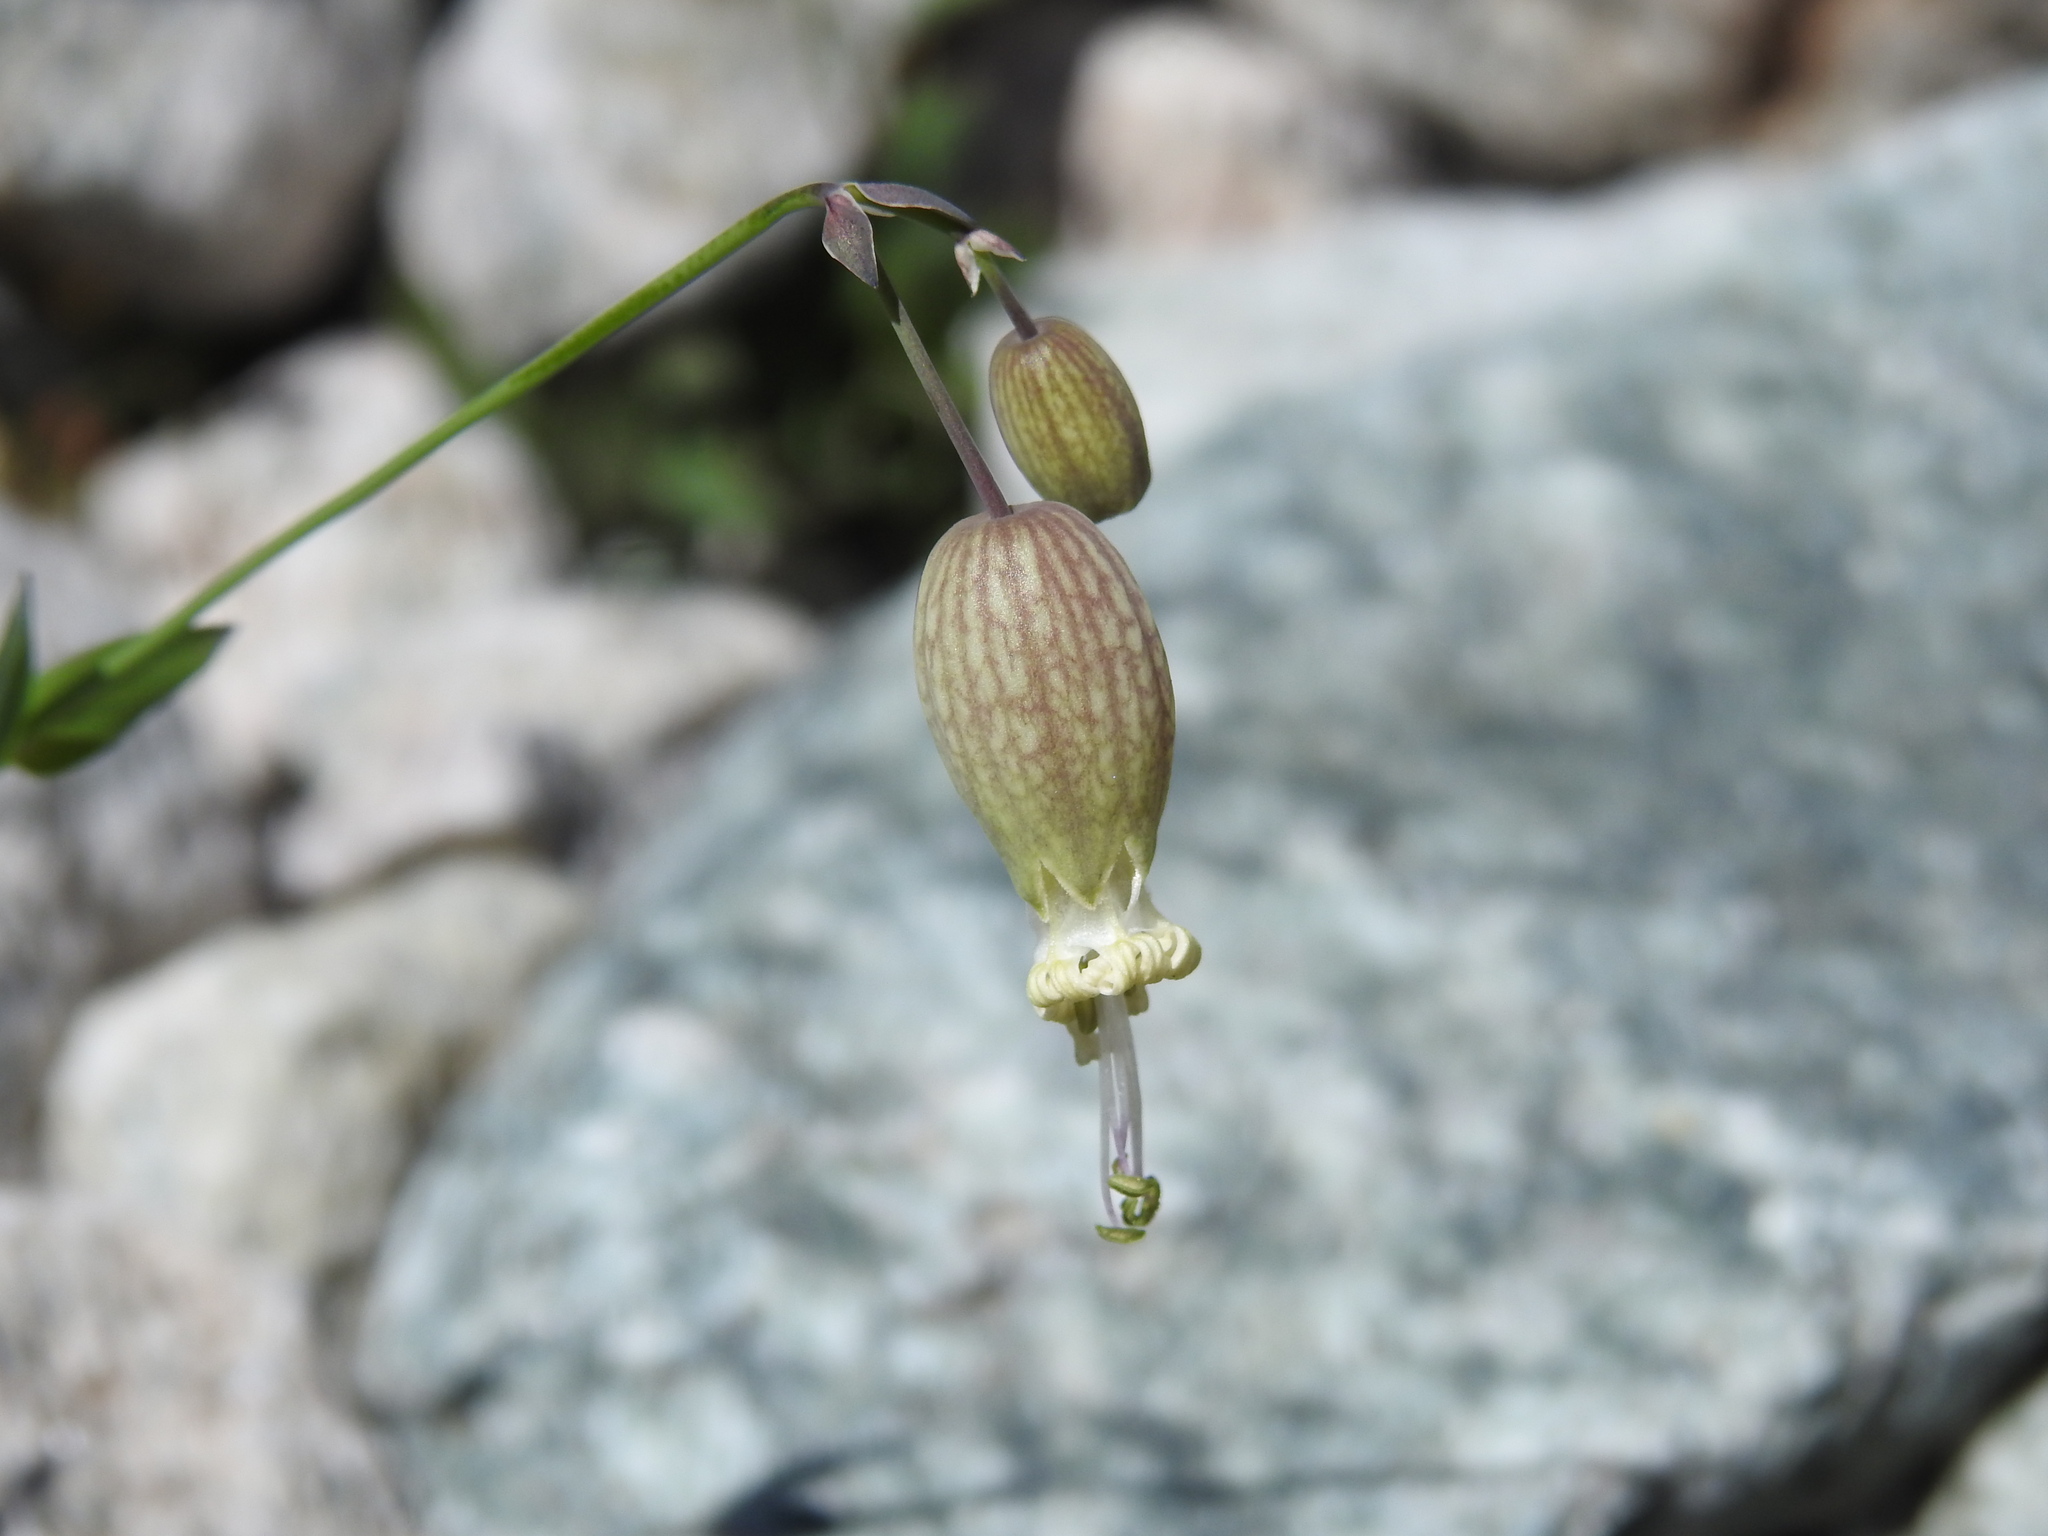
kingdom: Plantae
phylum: Tracheophyta
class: Magnoliopsida
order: Caryophyllales
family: Caryophyllaceae
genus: Silene
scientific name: Silene vulgaris
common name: Bladder campion
